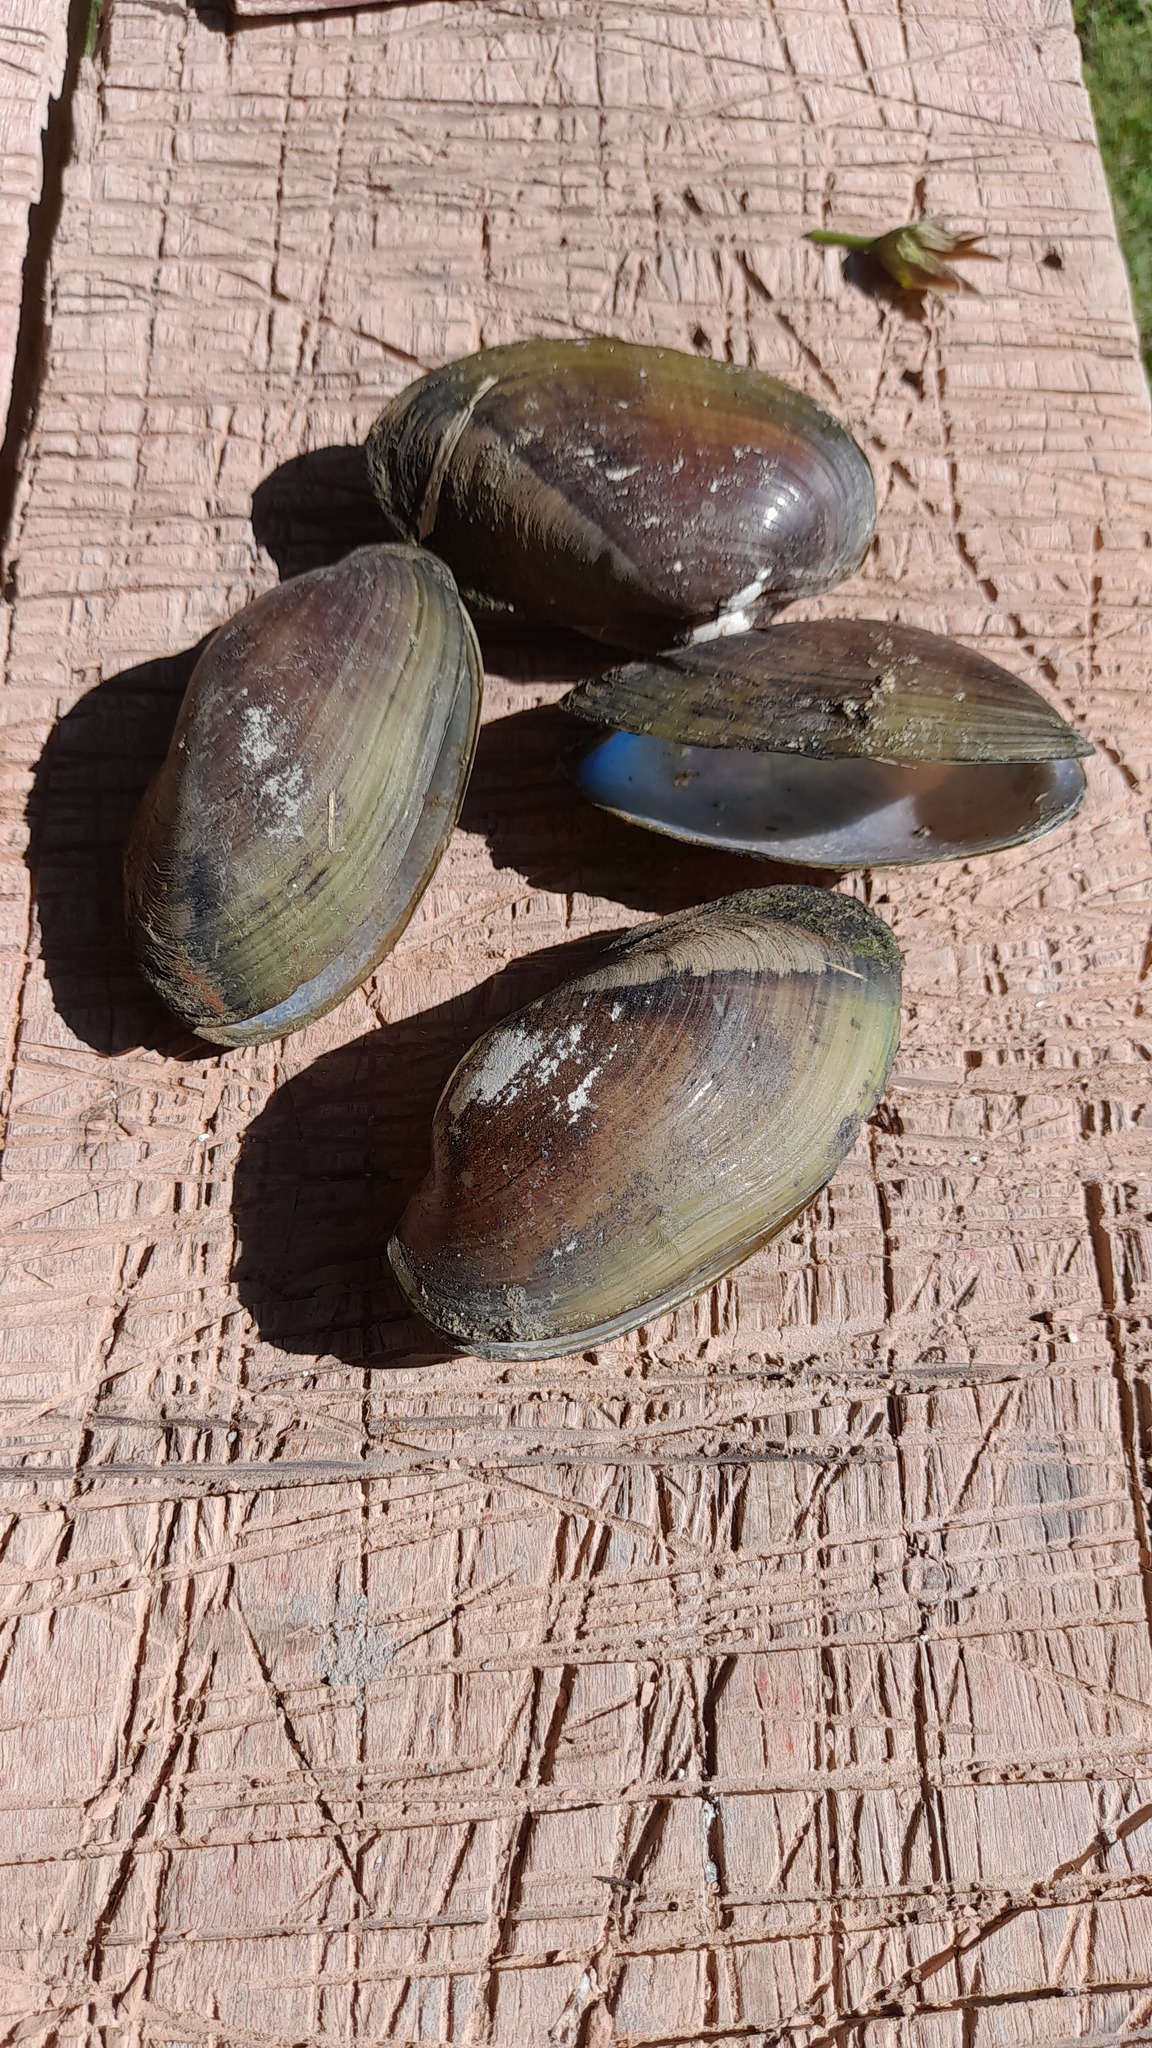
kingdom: Animalia
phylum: Mollusca
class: Bivalvia
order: Unionida
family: Mycetopodidae
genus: Anodontites
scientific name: Anodontites trapesialis
